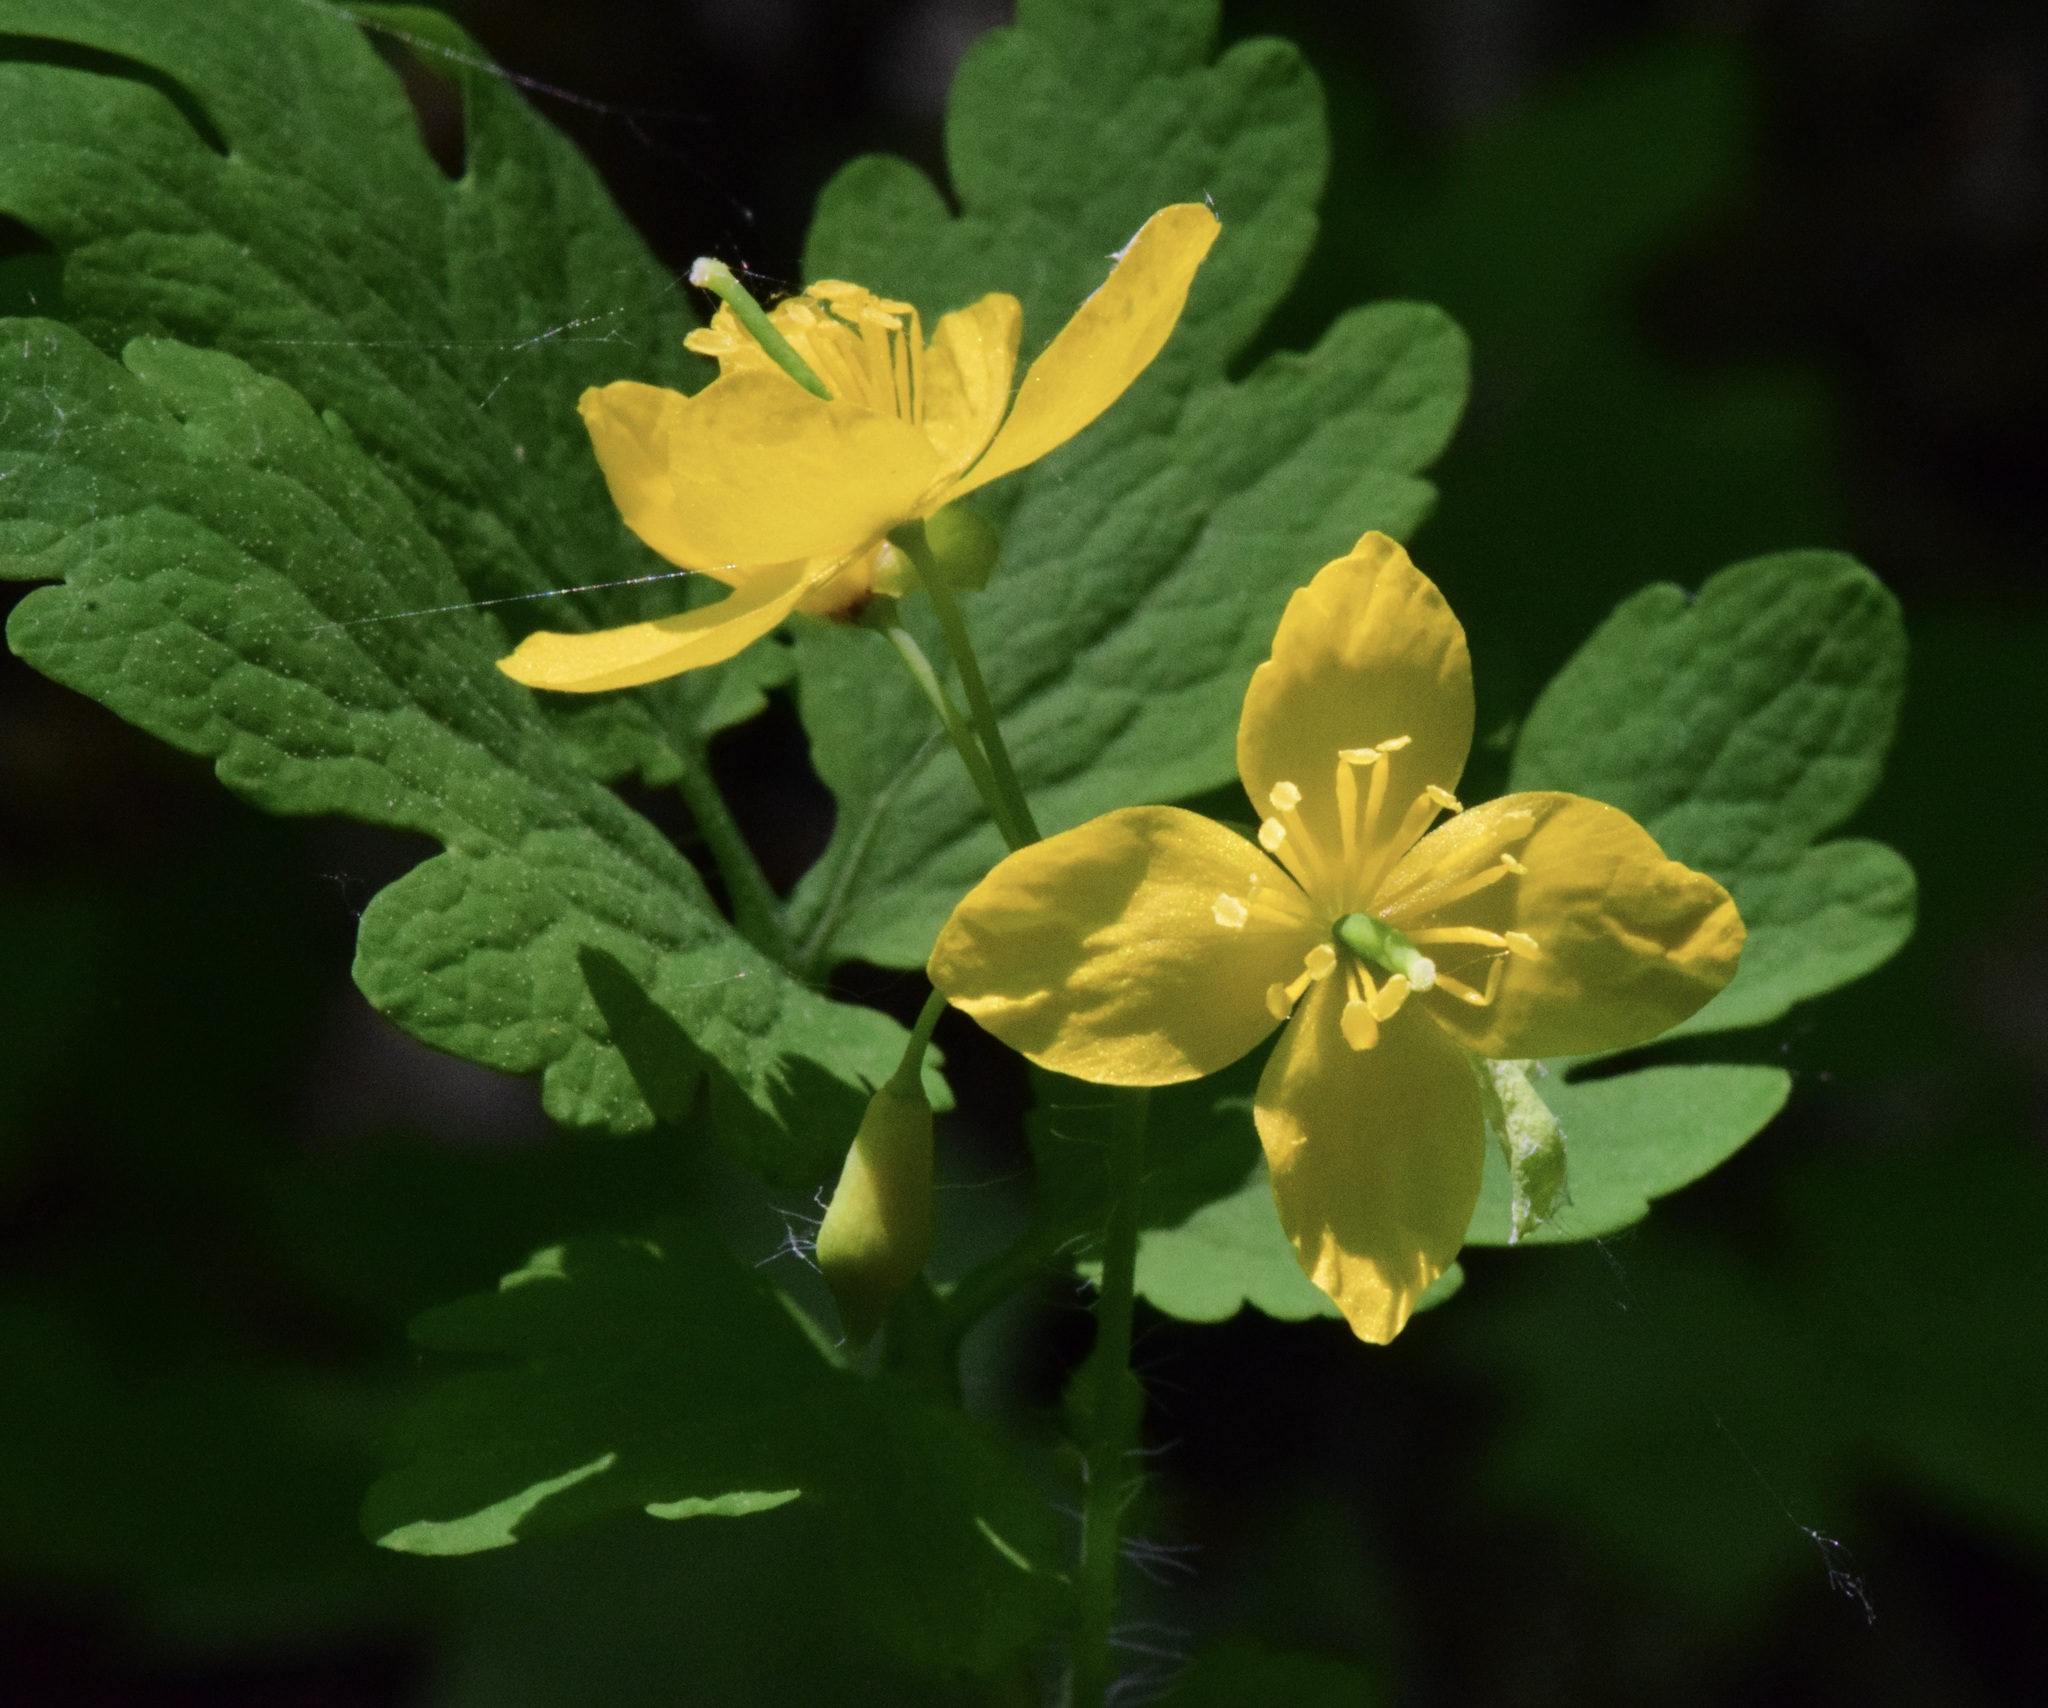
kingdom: Plantae
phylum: Tracheophyta
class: Magnoliopsida
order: Ranunculales
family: Papaveraceae
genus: Chelidonium
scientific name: Chelidonium majus
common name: Greater celandine
